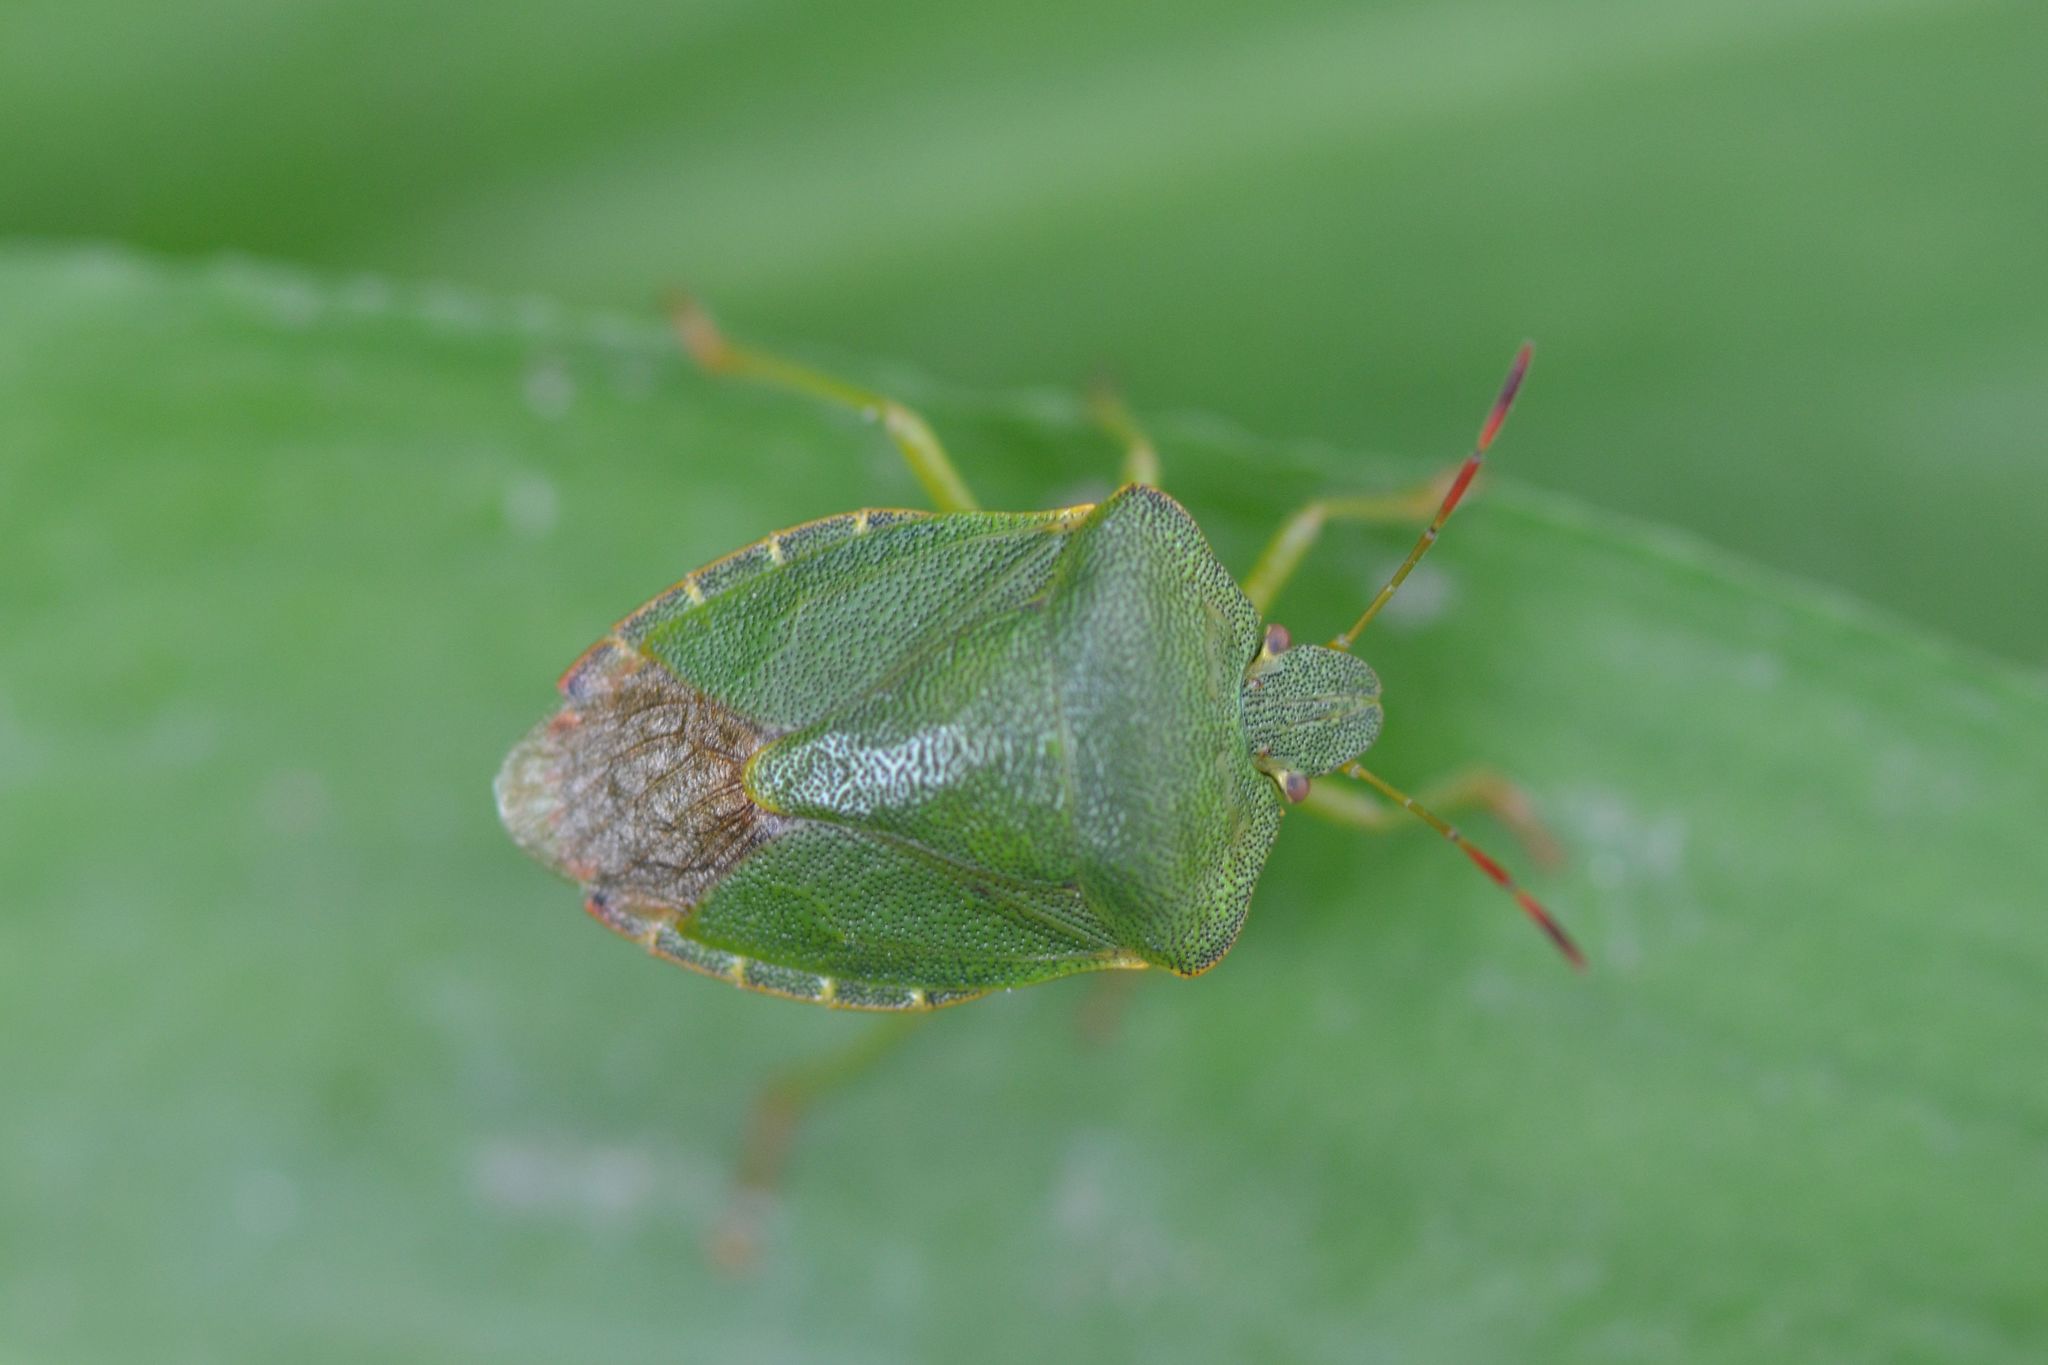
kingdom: Animalia
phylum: Arthropoda
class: Insecta
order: Hemiptera
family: Pentatomidae
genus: Palomena
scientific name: Palomena prasina
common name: Green shieldbug
